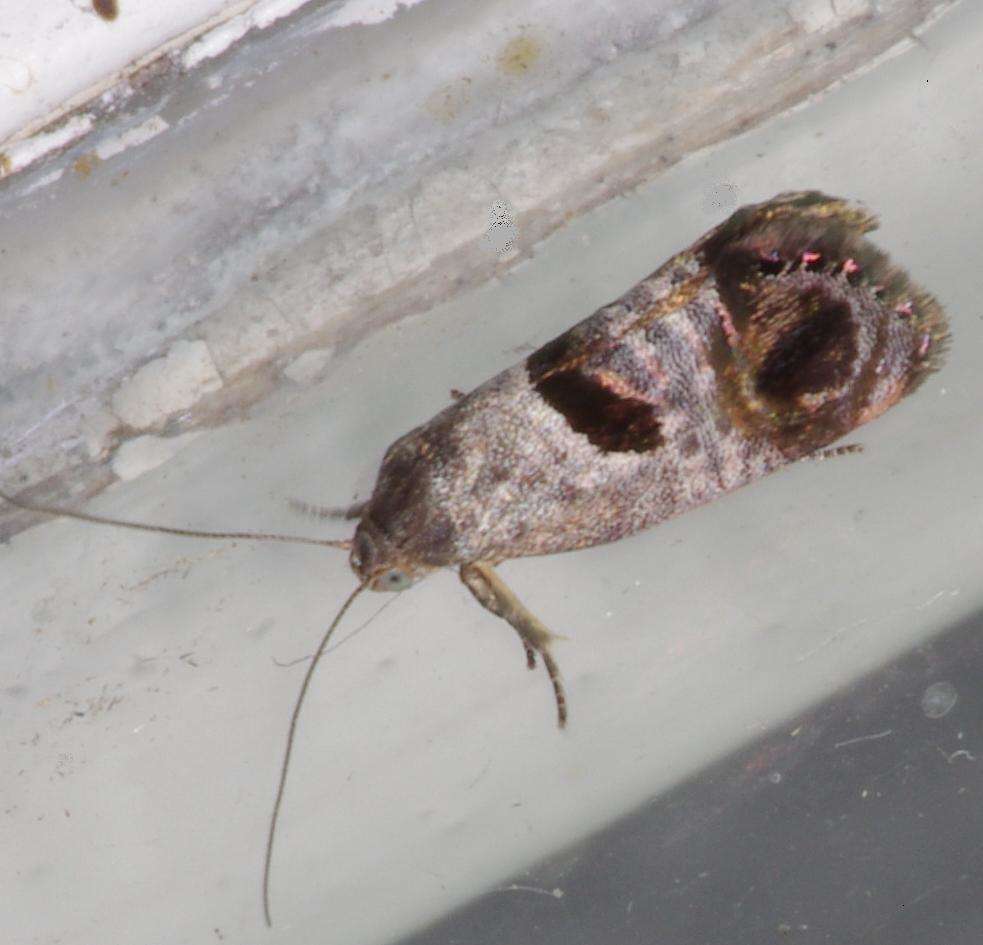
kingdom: Animalia
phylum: Arthropoda
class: Insecta
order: Lepidoptera
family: Depressariidae
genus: Eupselia
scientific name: Eupselia beatella
